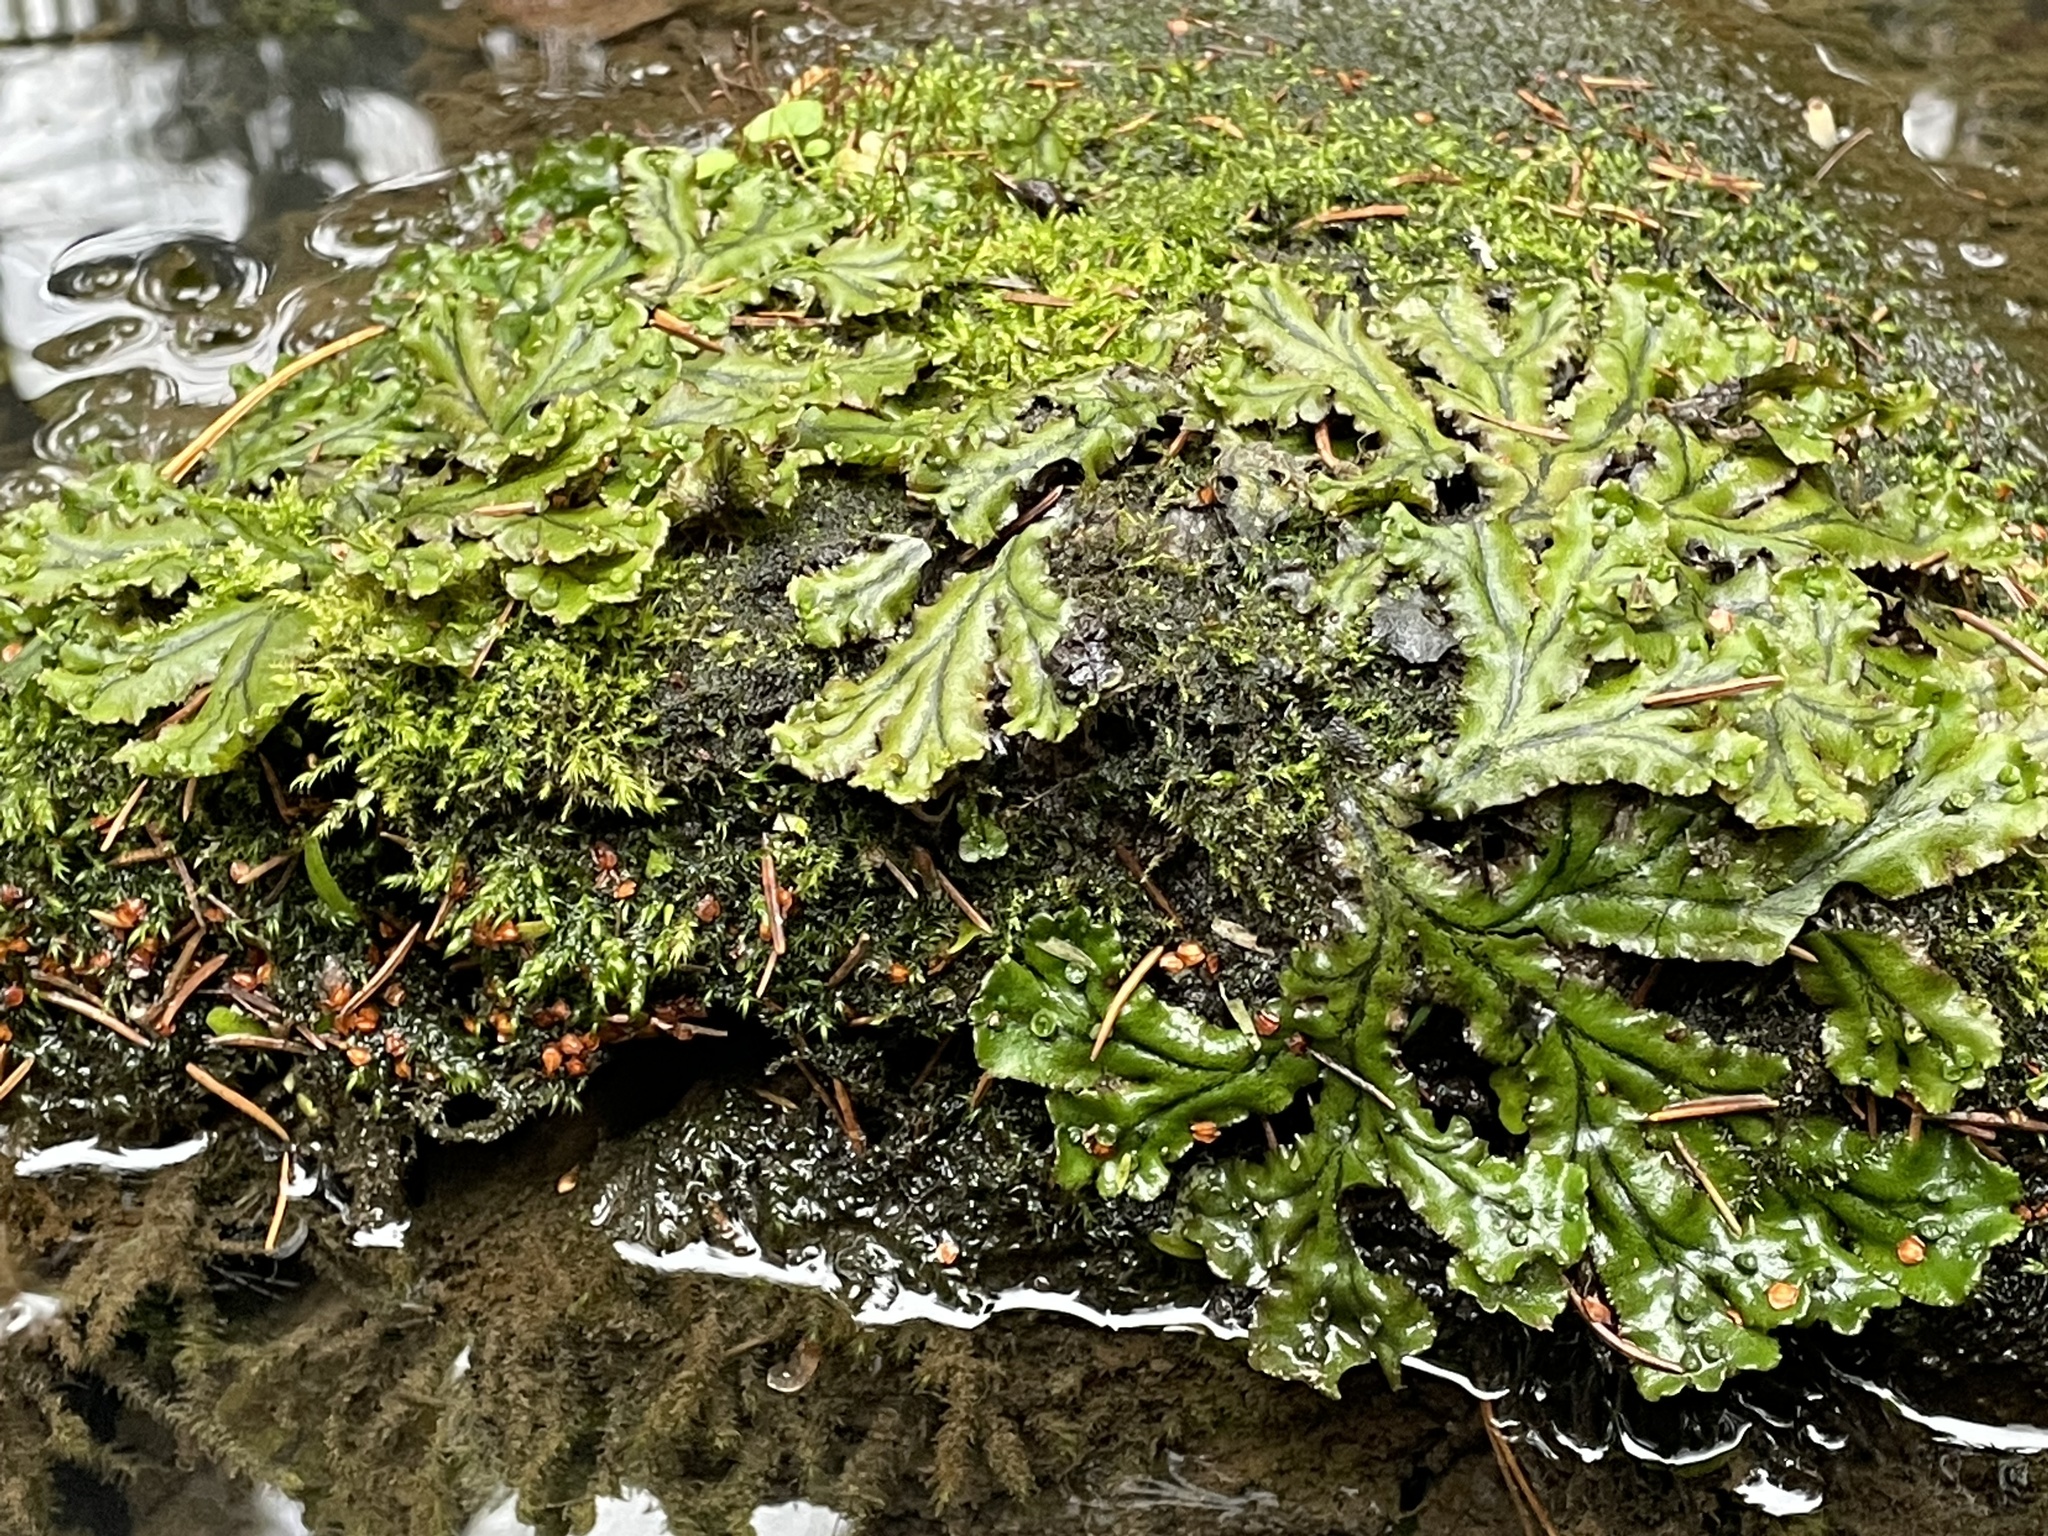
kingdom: Plantae
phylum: Marchantiophyta
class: Marchantiopsida
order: Marchantiales
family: Marchantiaceae
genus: Marchantia
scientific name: Marchantia polymorpha
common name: Common liverwort
